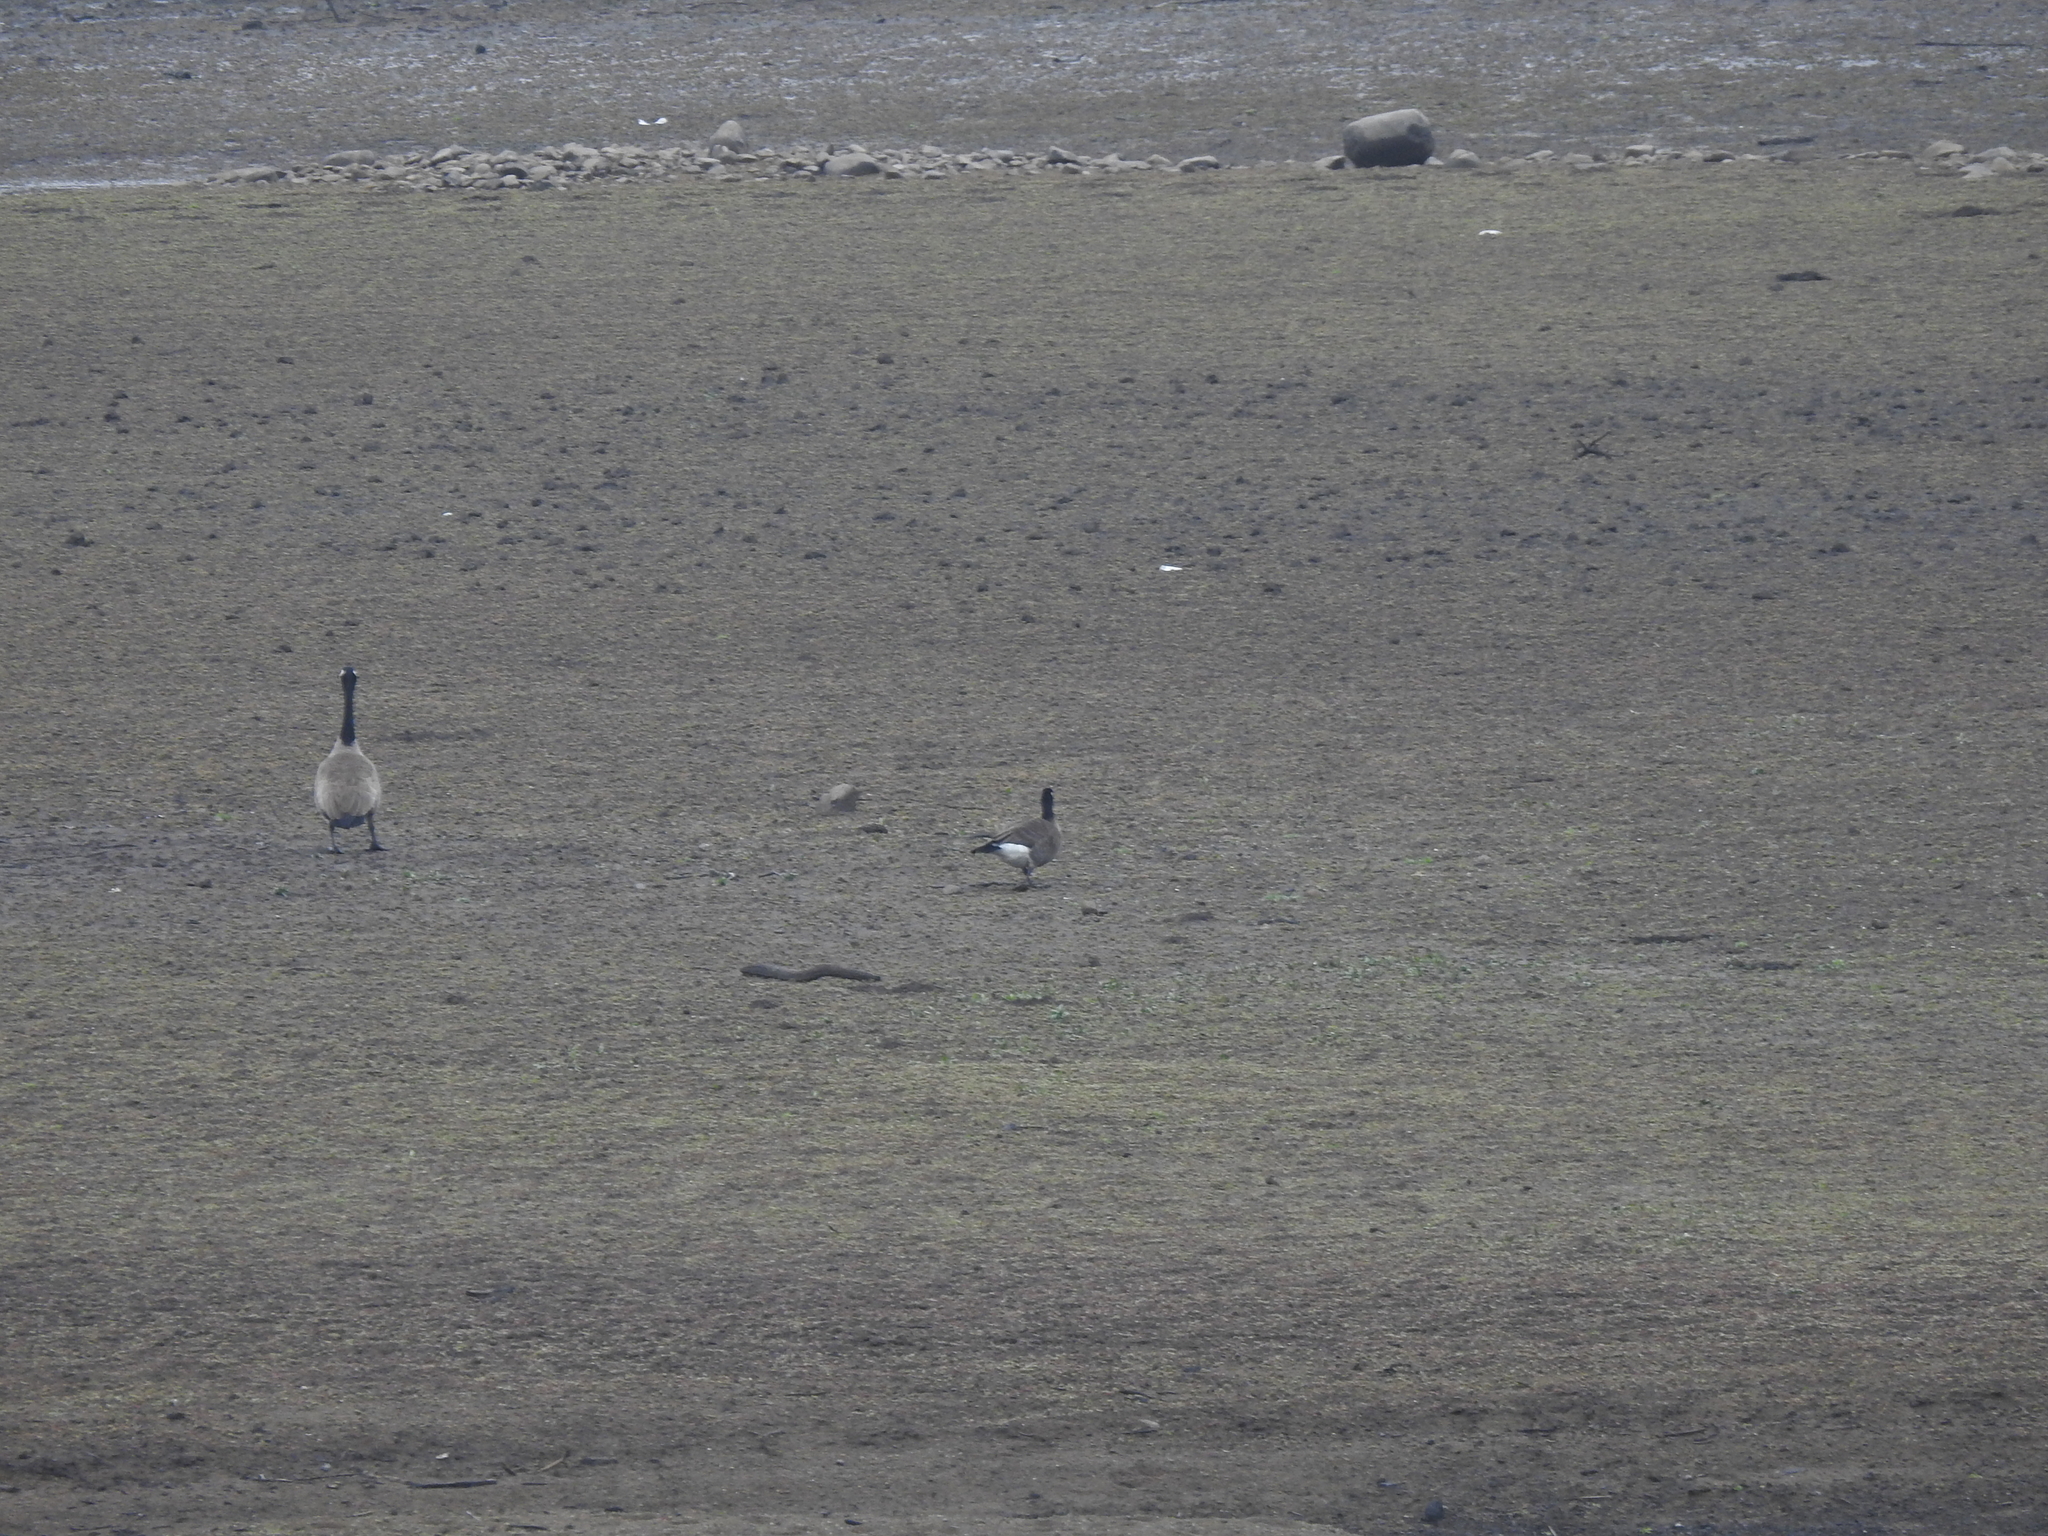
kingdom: Animalia
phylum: Chordata
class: Aves
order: Anseriformes
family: Anatidae
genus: Branta
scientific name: Branta hutchinsii
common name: Cackling goose
